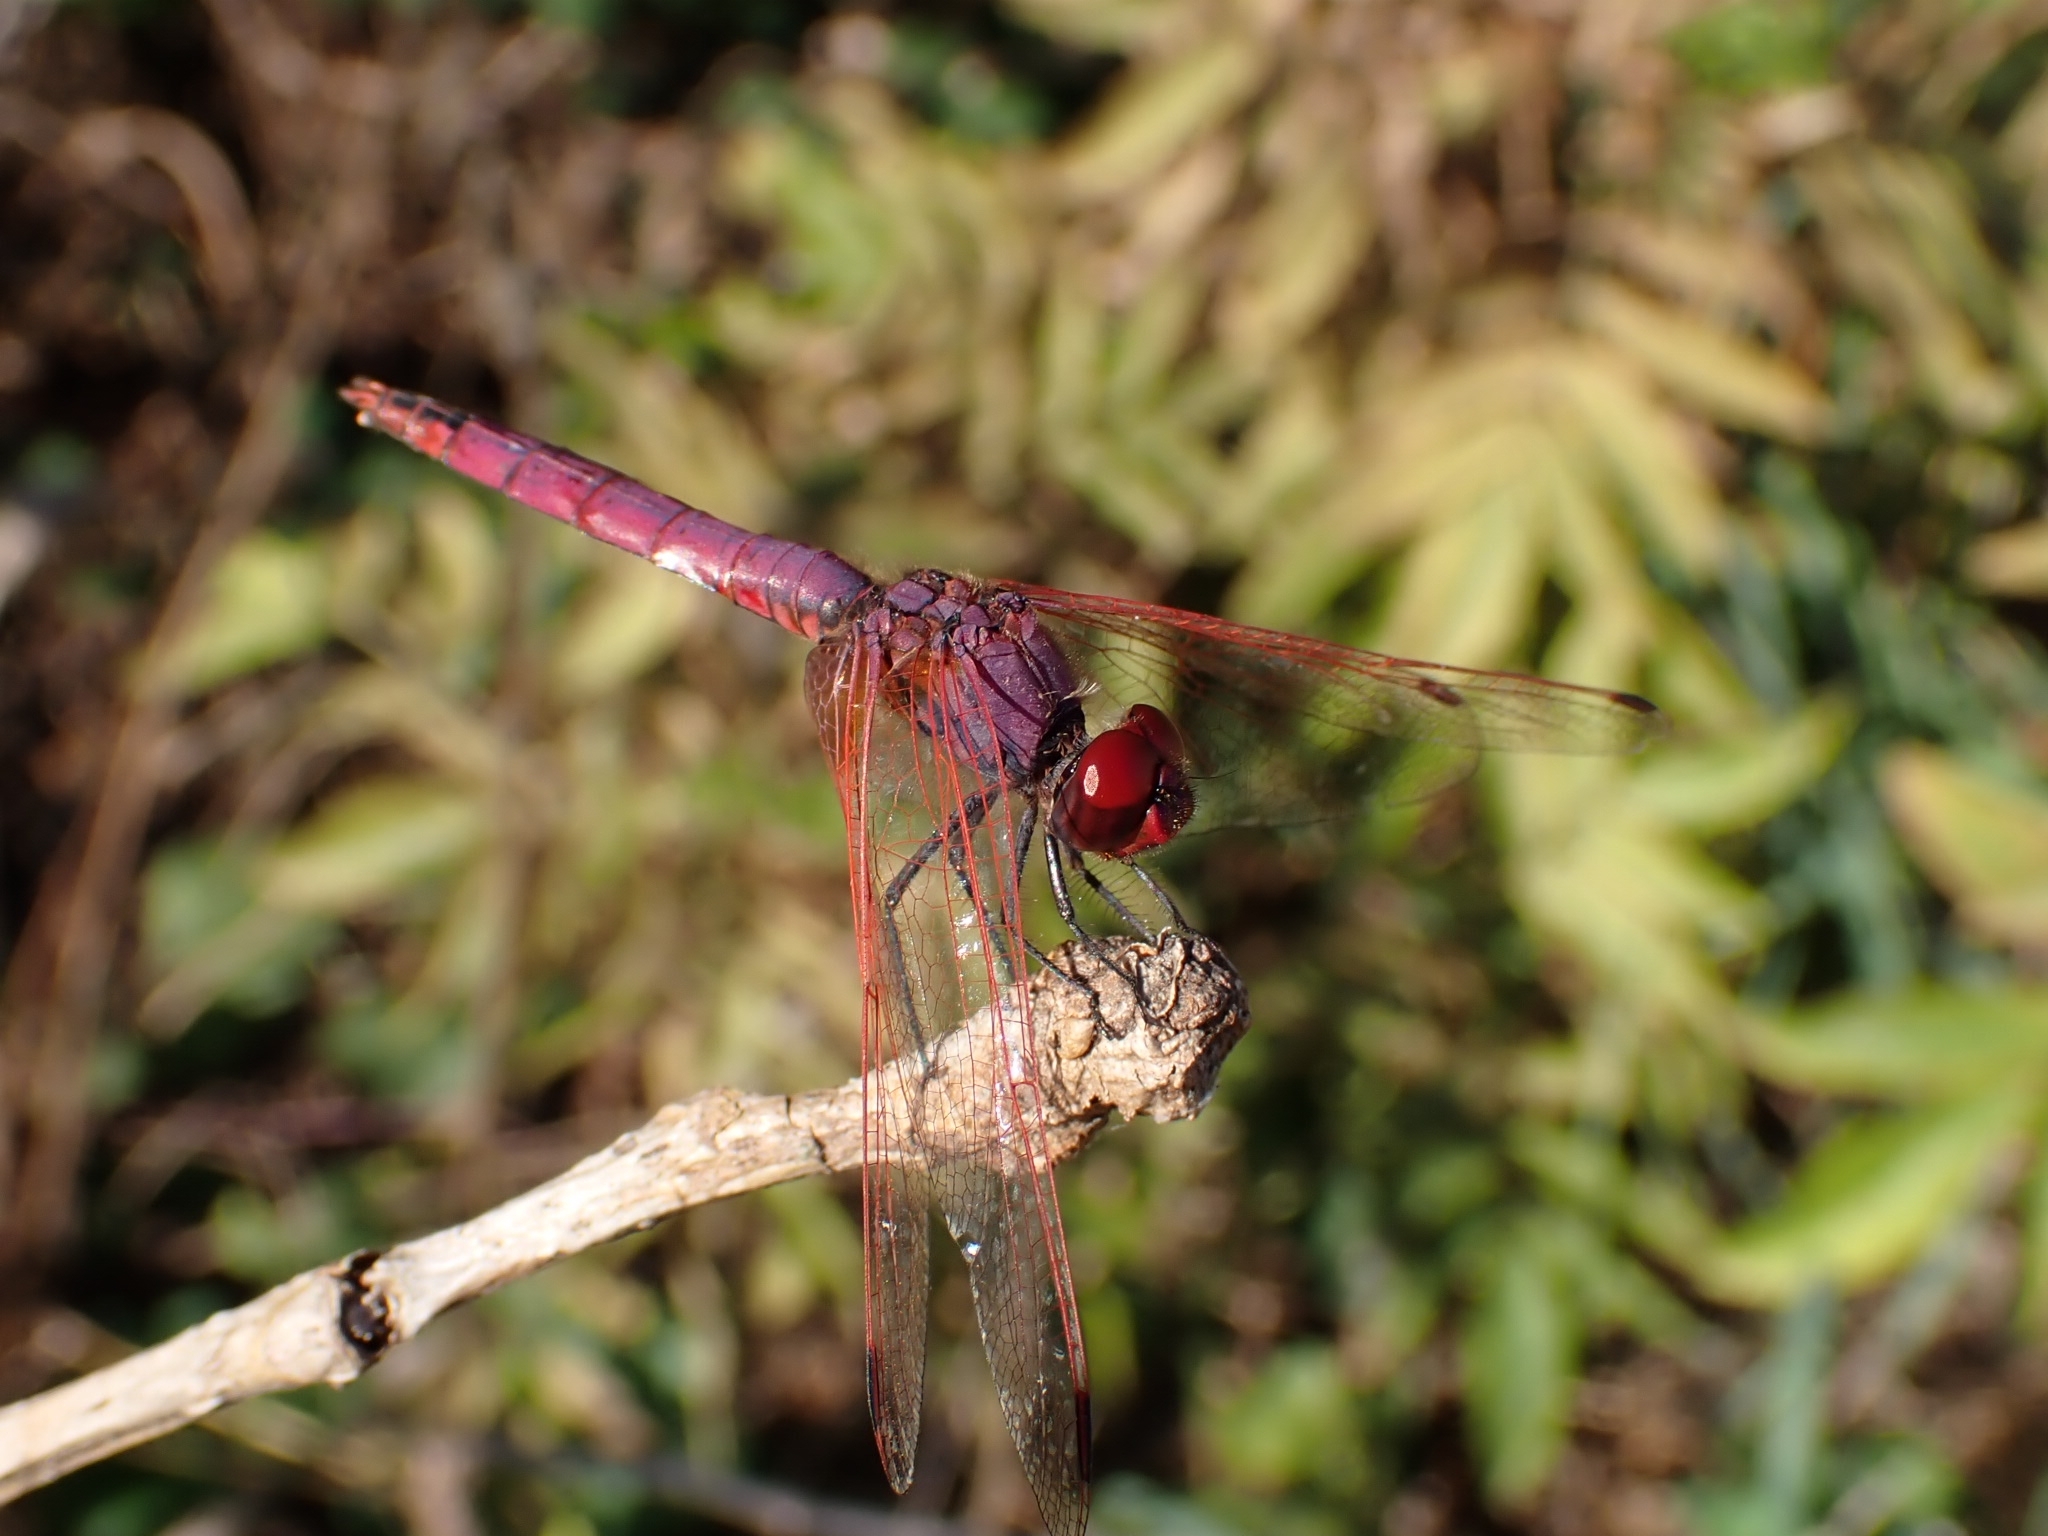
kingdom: Animalia
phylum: Arthropoda
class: Insecta
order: Odonata
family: Libellulidae
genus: Trithemis
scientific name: Trithemis annulata
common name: Violet dropwing
